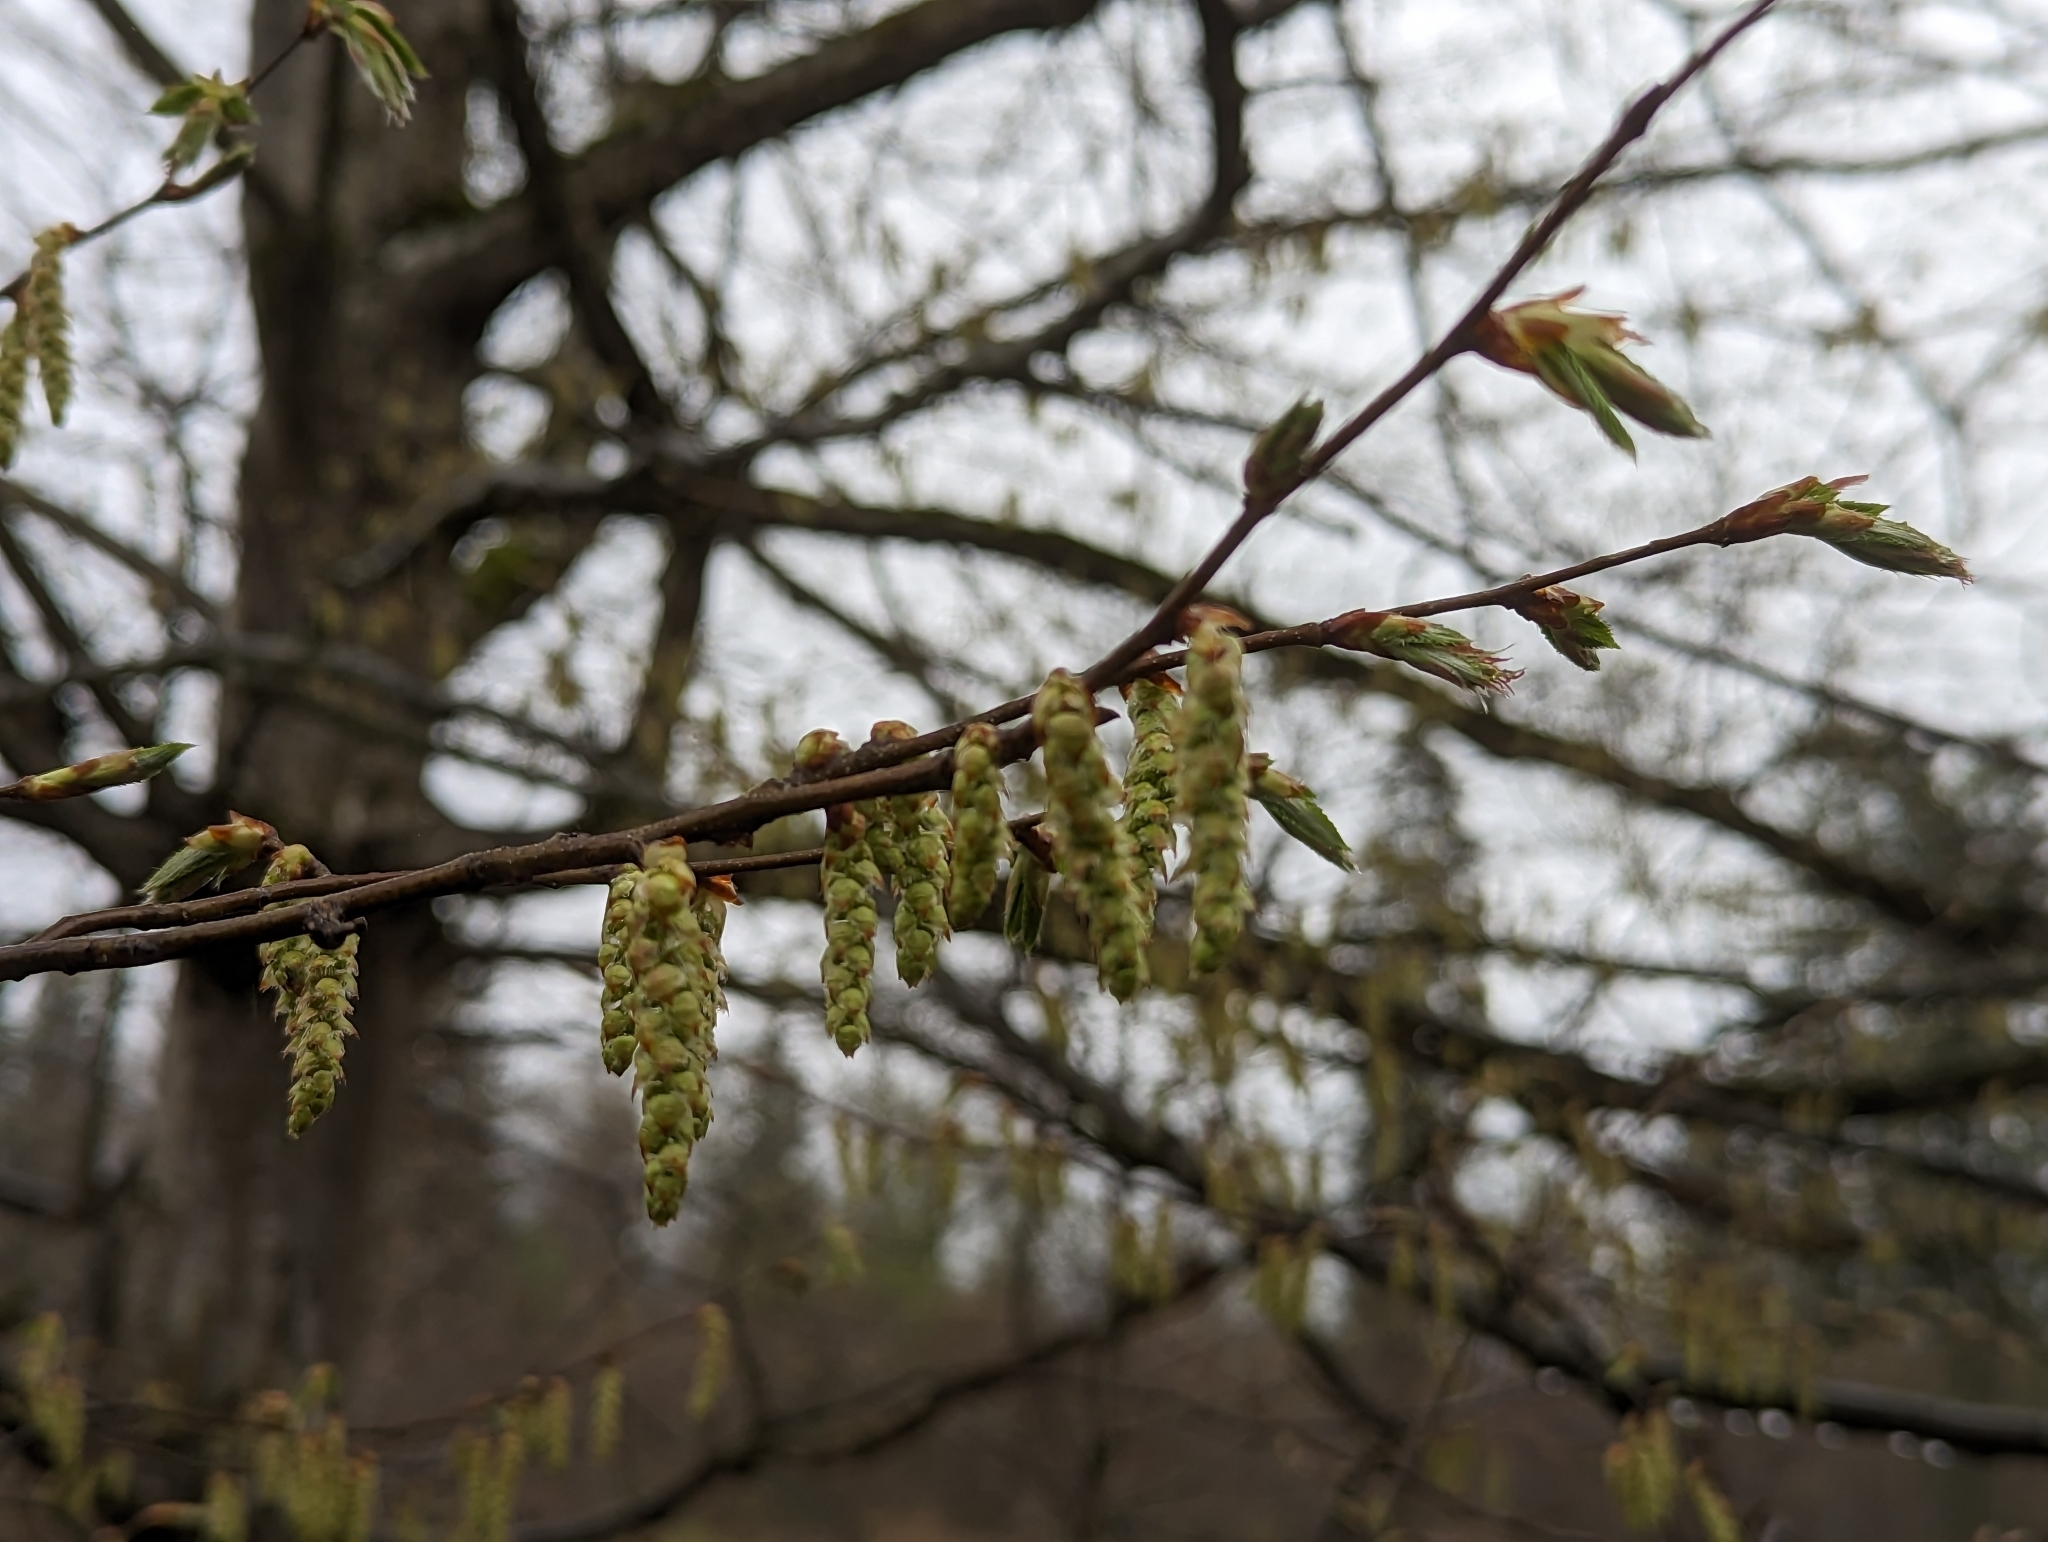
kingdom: Plantae
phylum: Tracheophyta
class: Magnoliopsida
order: Fagales
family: Betulaceae
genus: Carpinus
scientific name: Carpinus betulus
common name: Hornbeam
